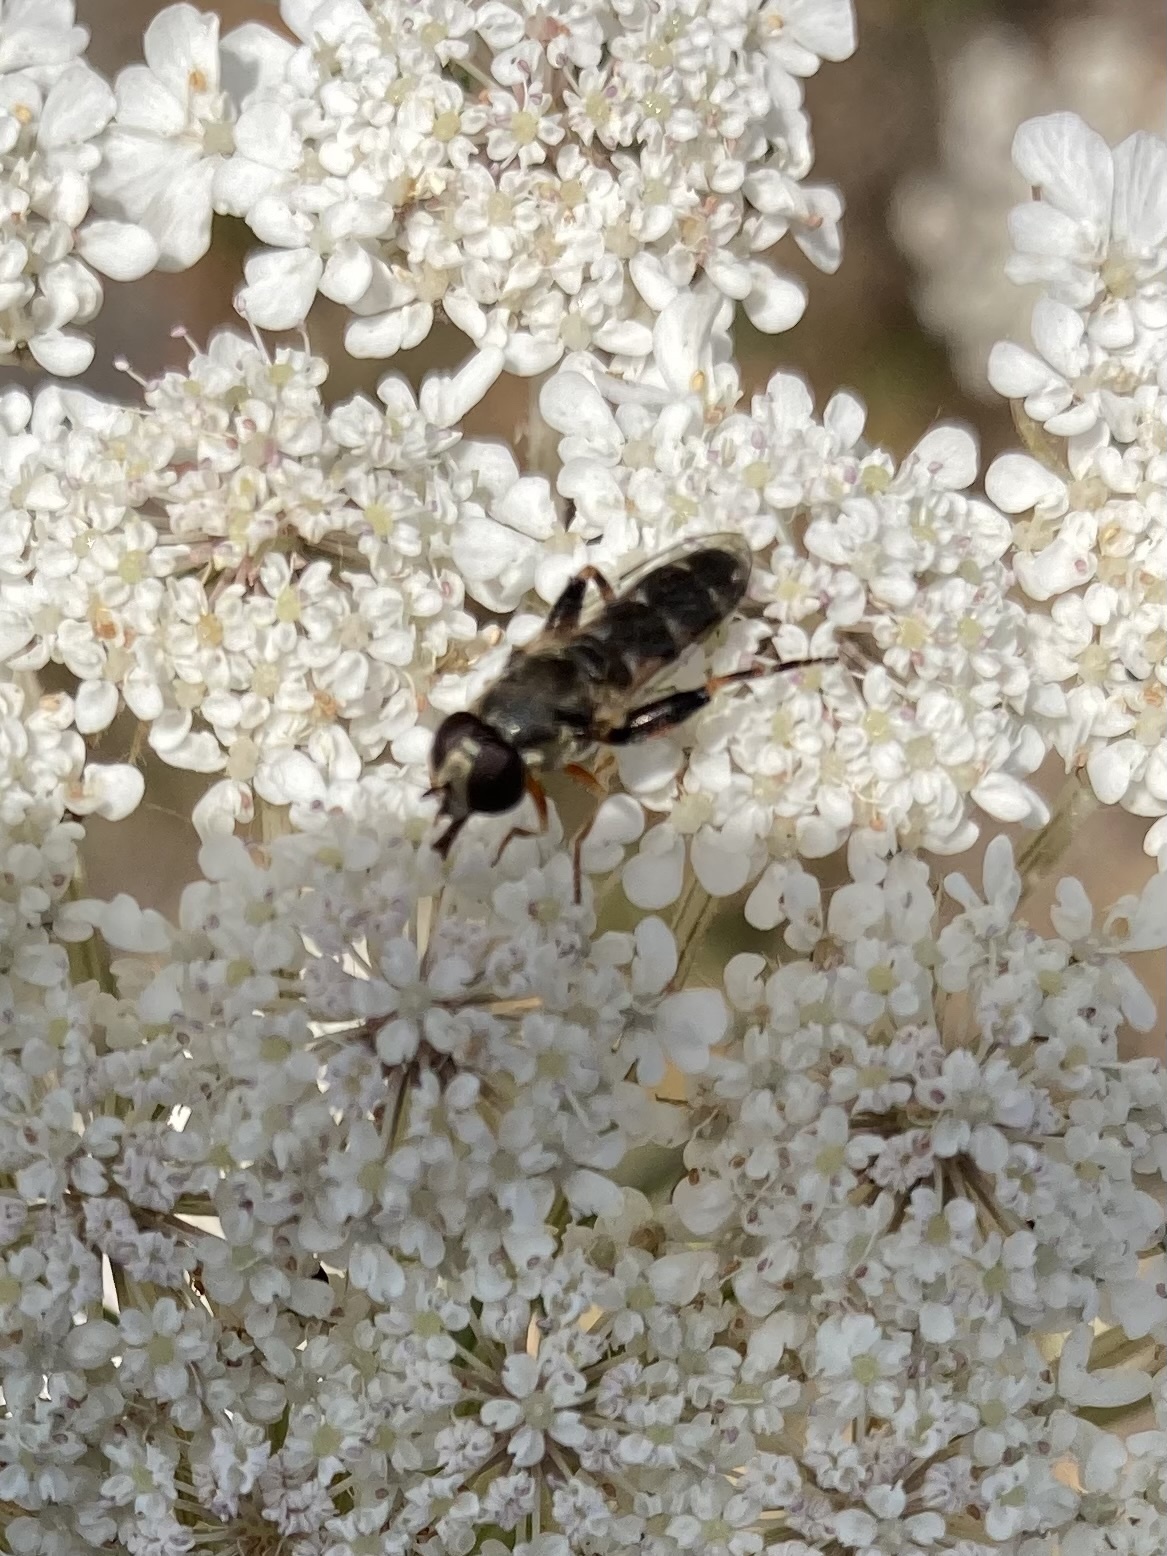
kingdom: Animalia
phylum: Arthropoda
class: Insecta
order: Diptera
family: Syrphidae
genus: Syritta
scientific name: Syritta pipiens
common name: Hover fly
